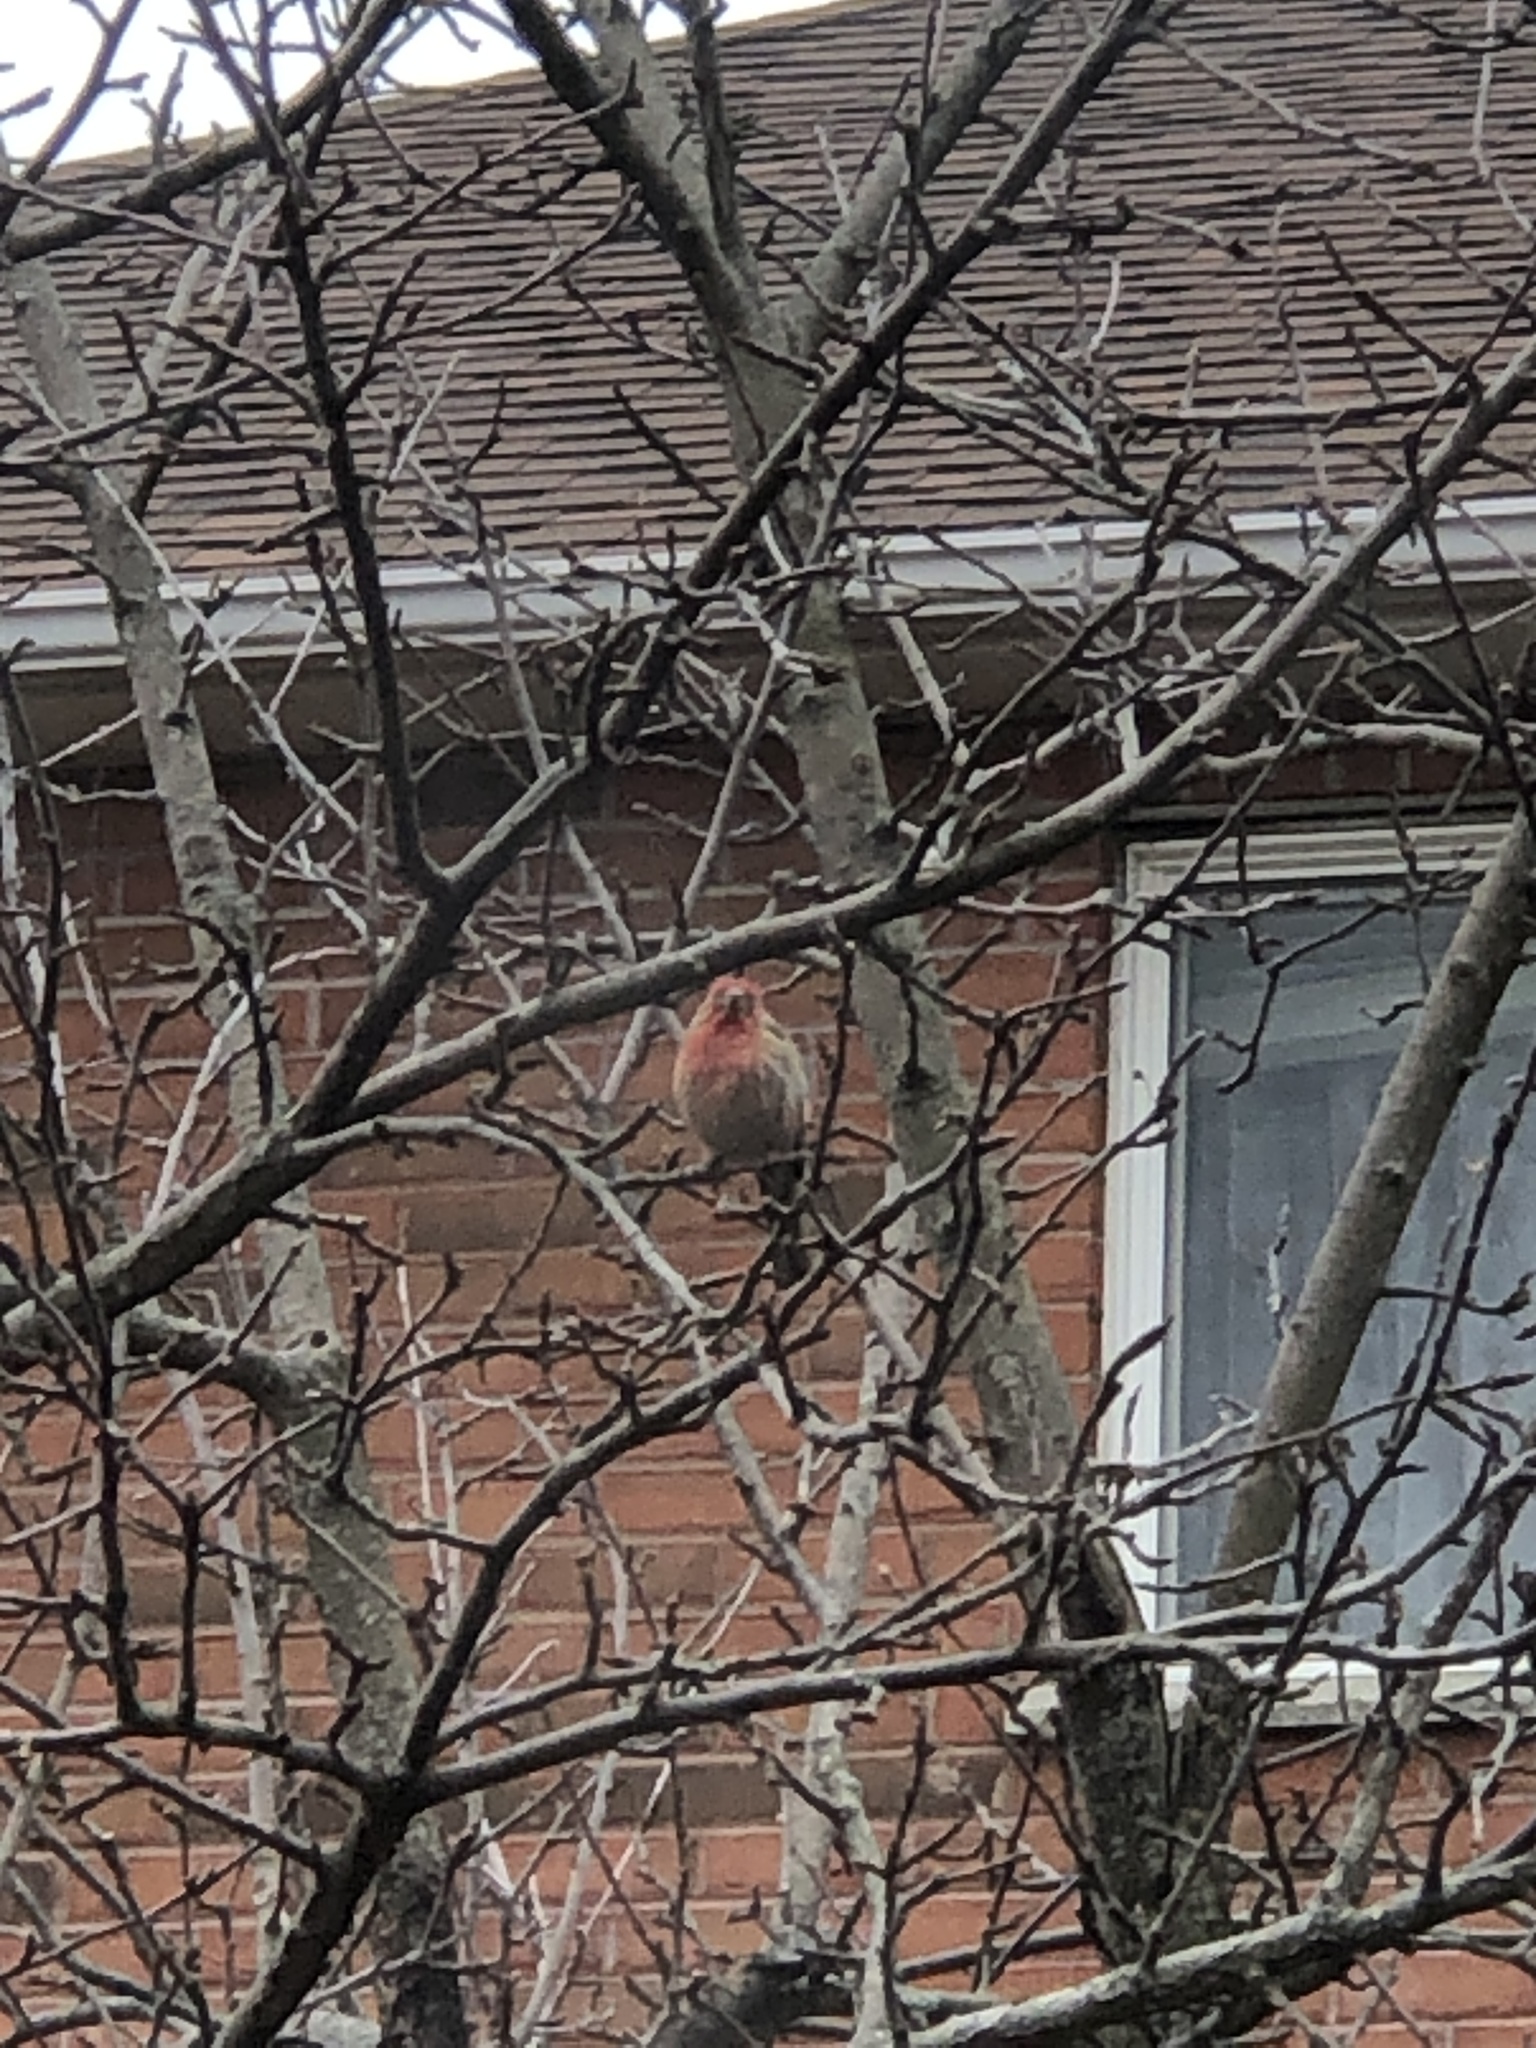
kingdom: Animalia
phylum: Chordata
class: Aves
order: Passeriformes
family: Fringillidae
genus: Haemorhous
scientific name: Haemorhous mexicanus
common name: House finch
